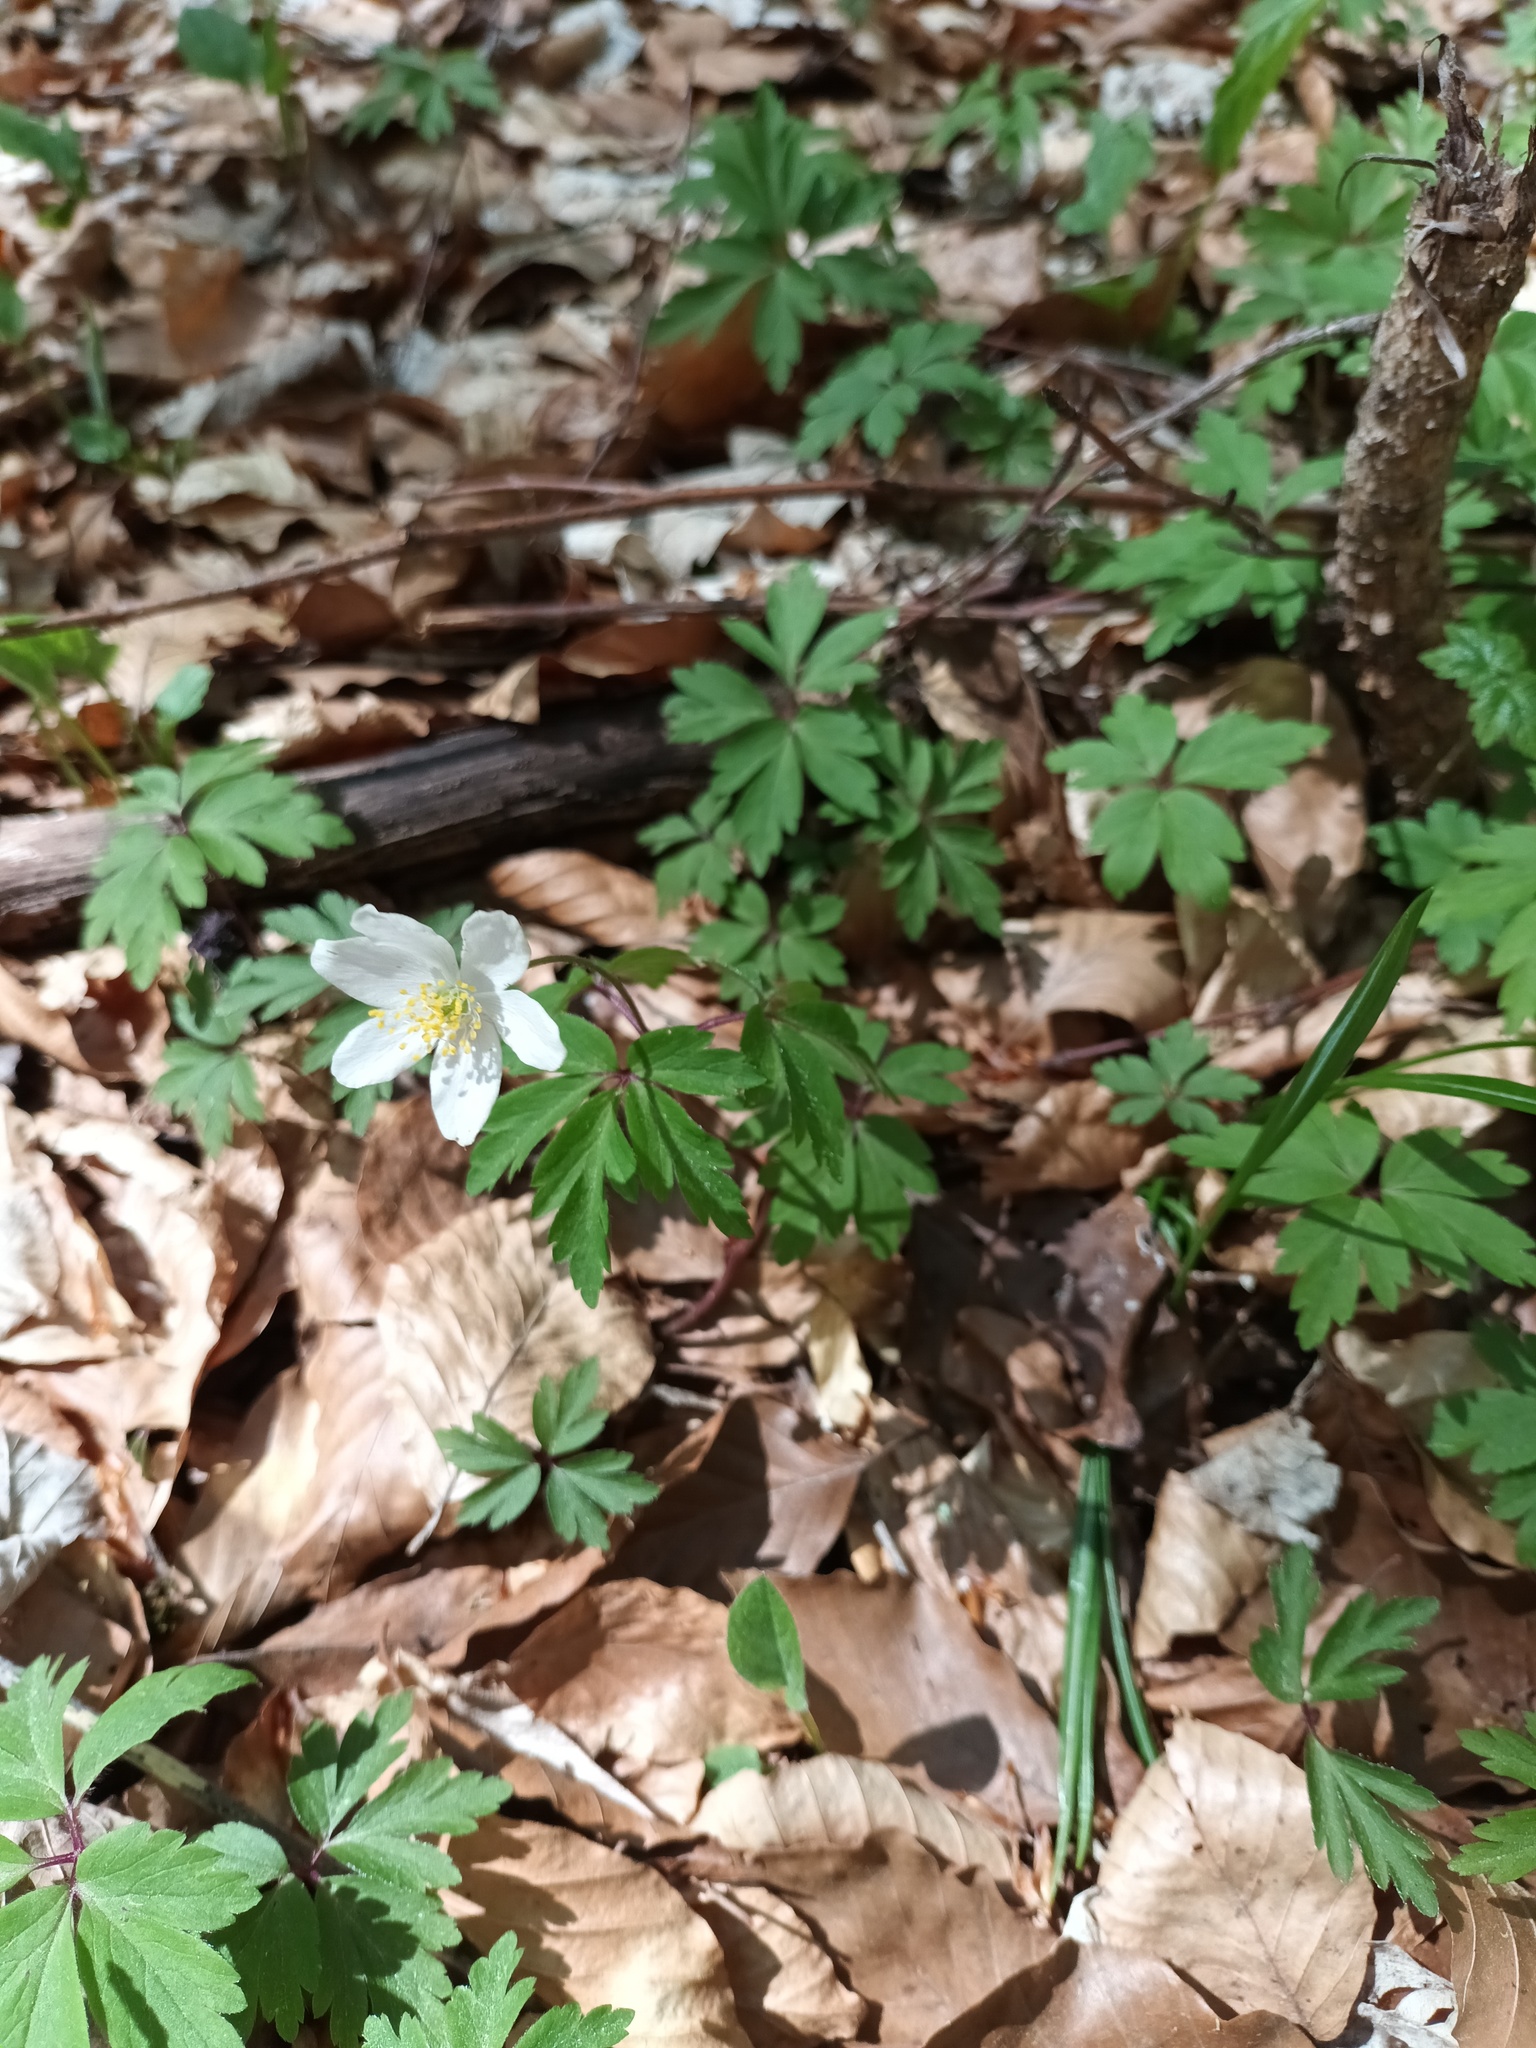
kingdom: Plantae
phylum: Tracheophyta
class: Magnoliopsida
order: Ranunculales
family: Ranunculaceae
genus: Anemone
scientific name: Anemone nemorosa
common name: Wood anemone
